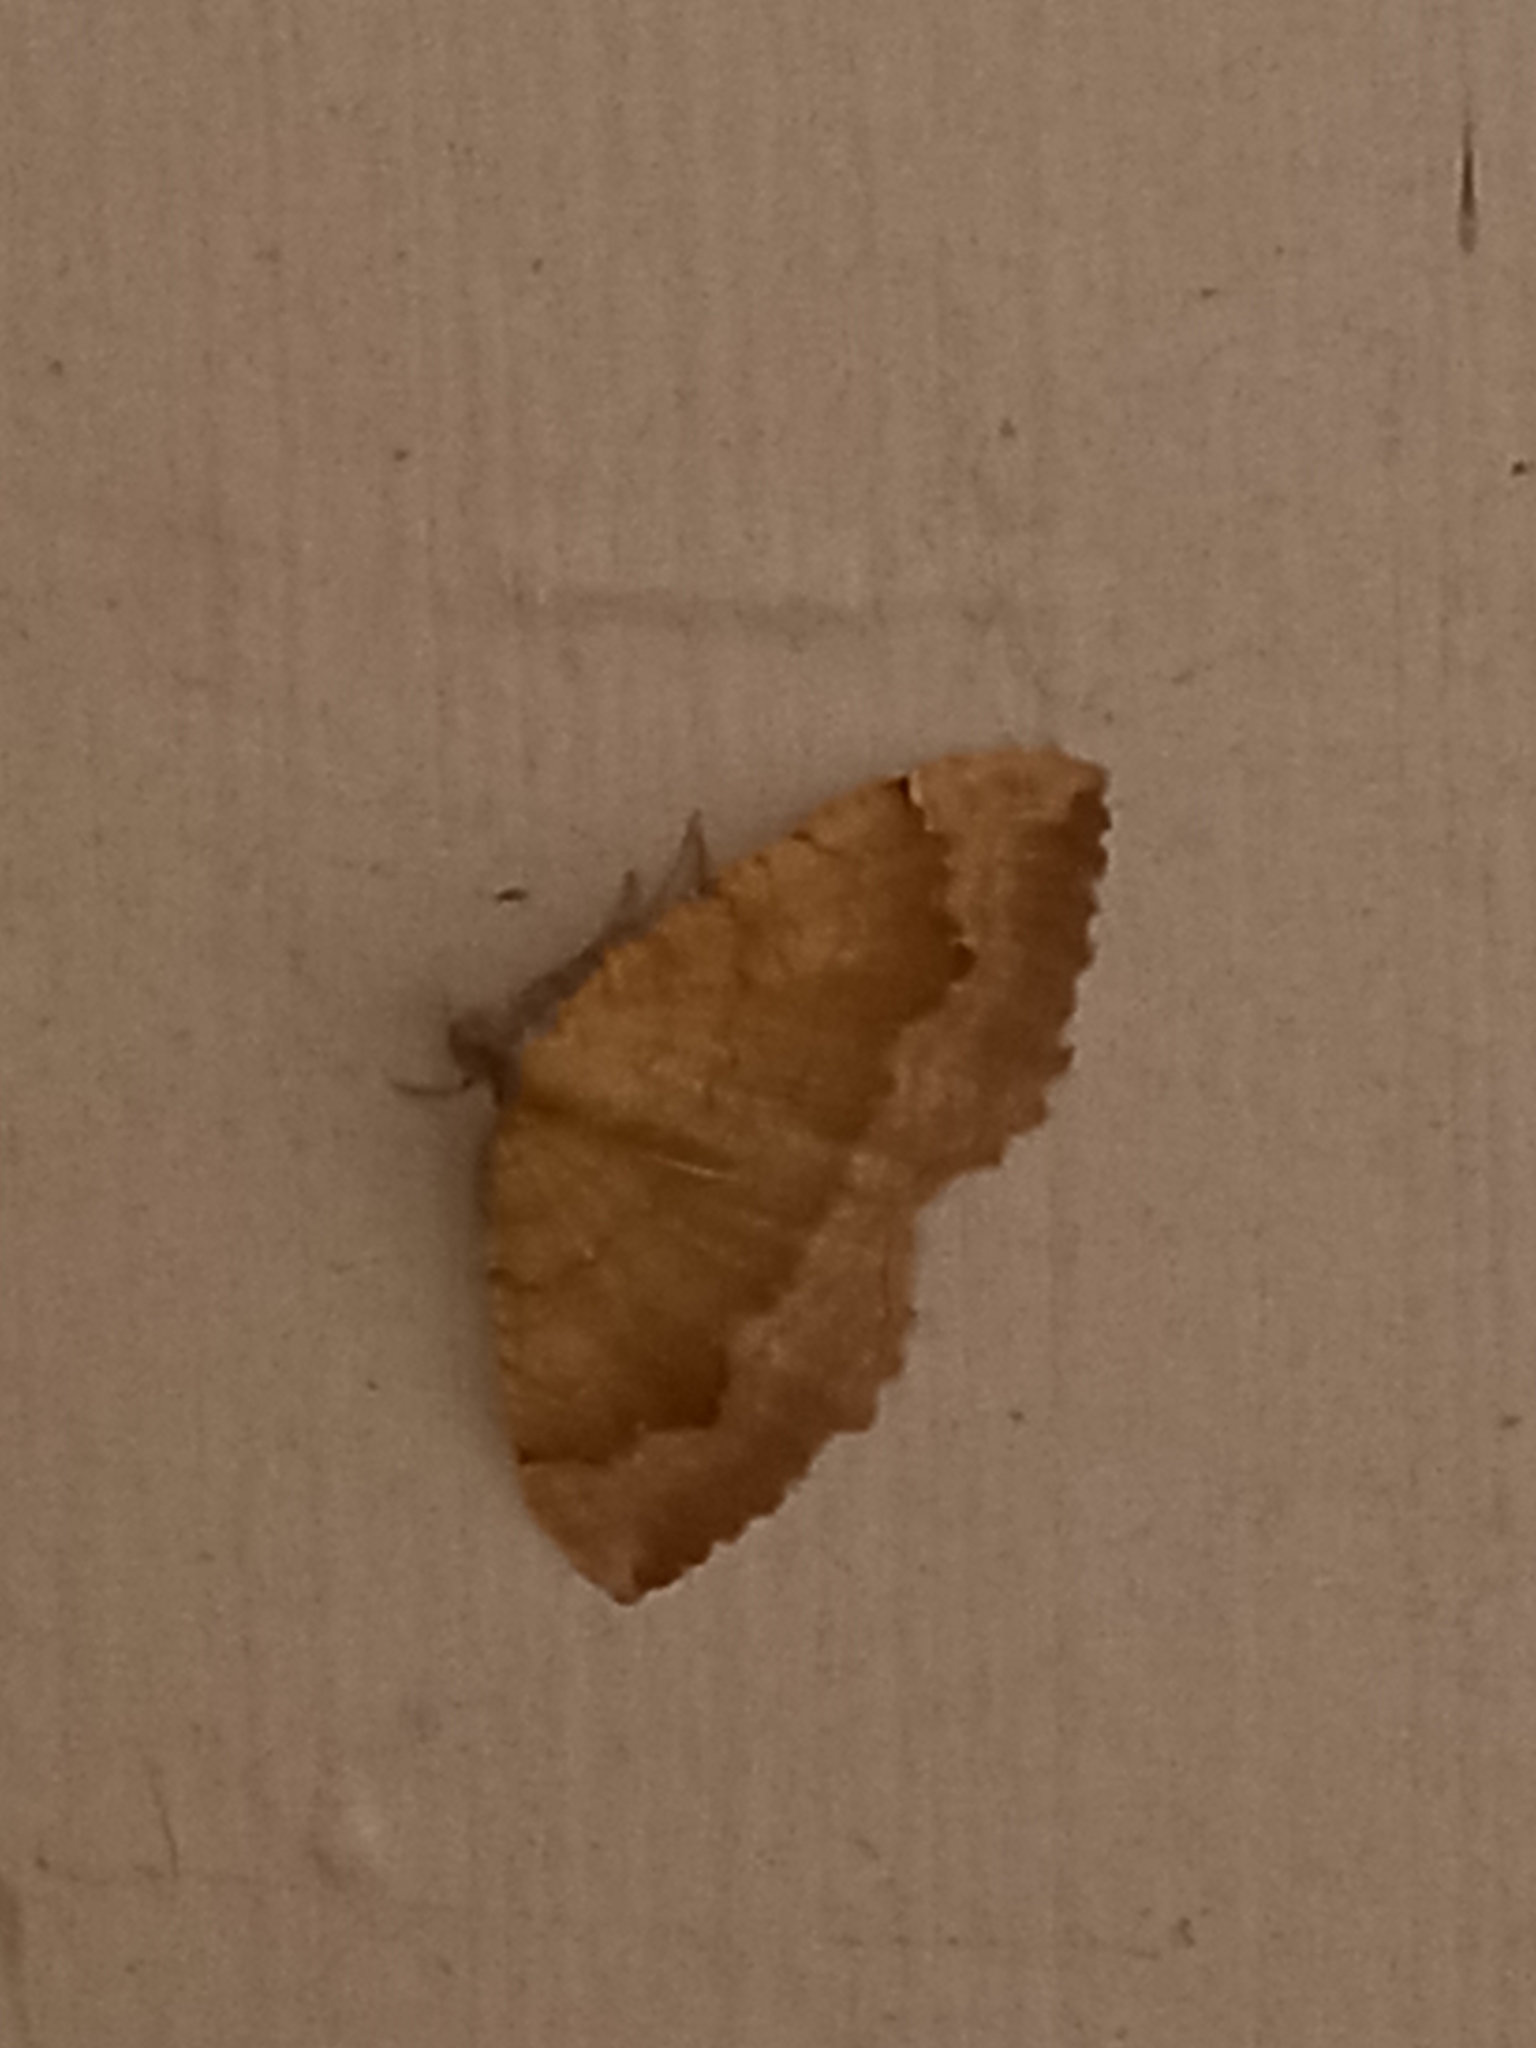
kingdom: Animalia
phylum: Arthropoda
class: Insecta
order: Lepidoptera
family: Geometridae
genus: Camptogramma
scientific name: Camptogramma bilineata
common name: Yellow shell
